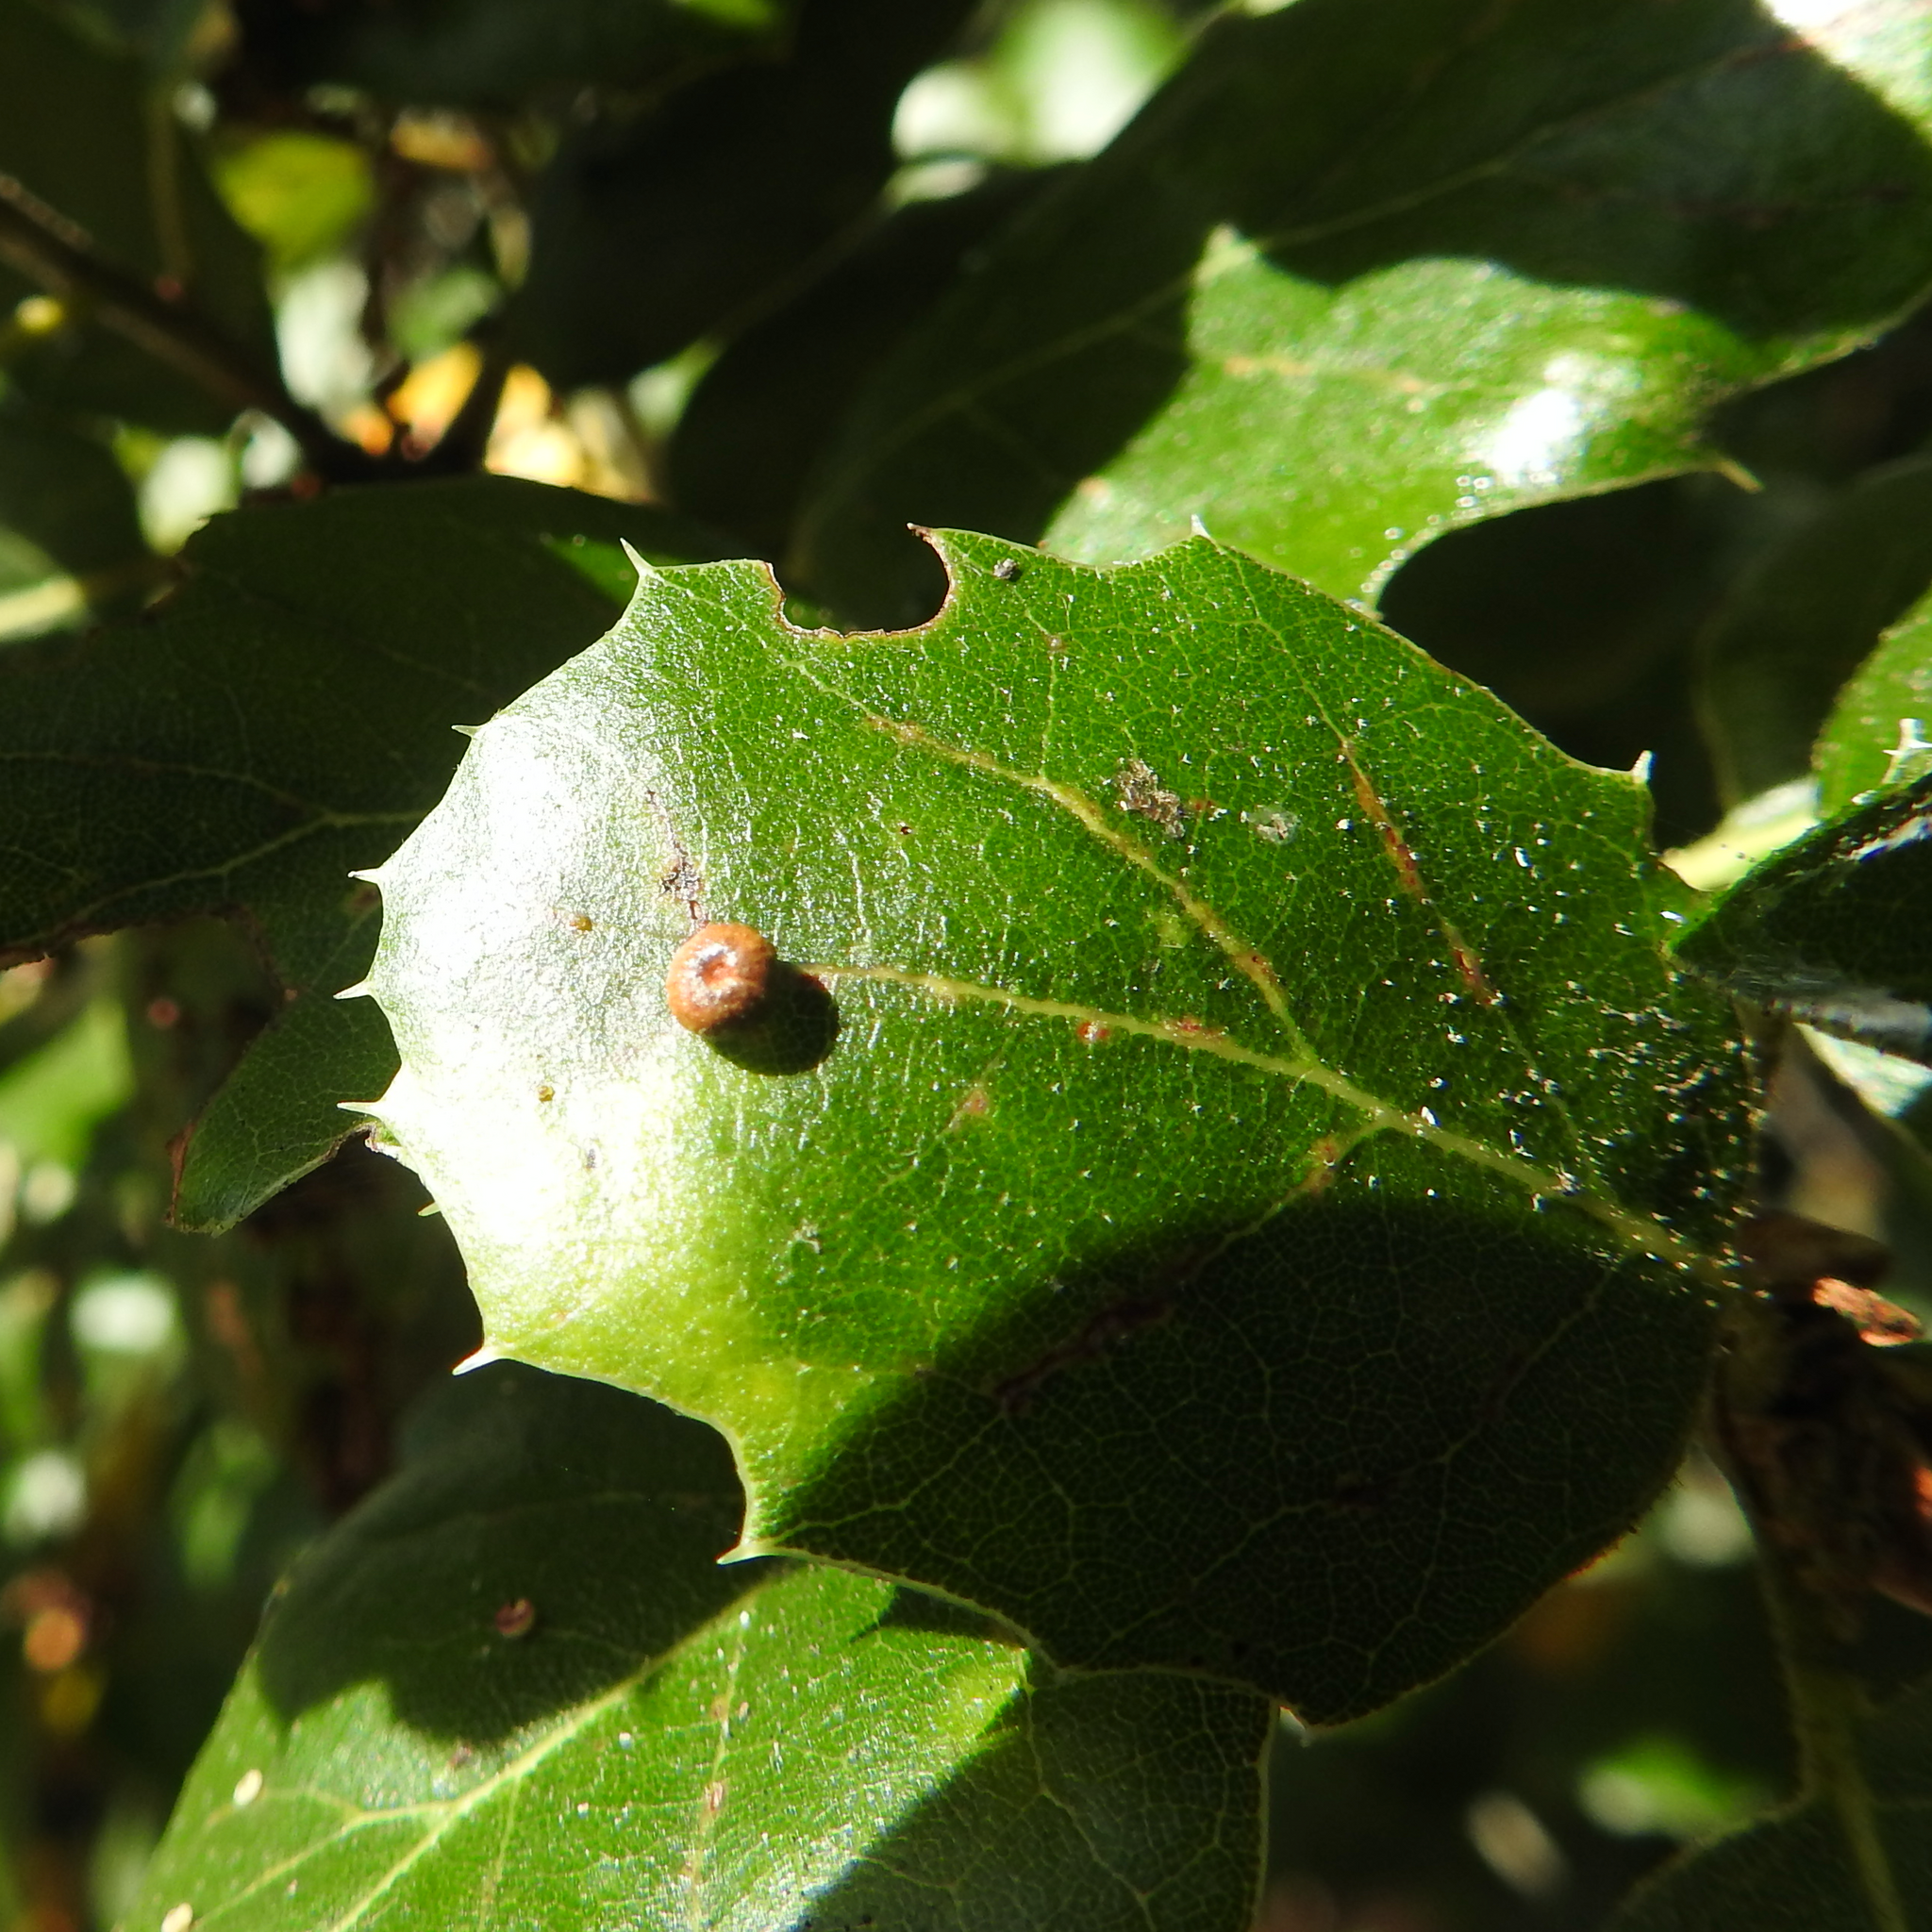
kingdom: Animalia
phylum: Arthropoda
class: Insecta
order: Hymenoptera
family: Cynipidae
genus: Dryocosmus
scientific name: Dryocosmus
